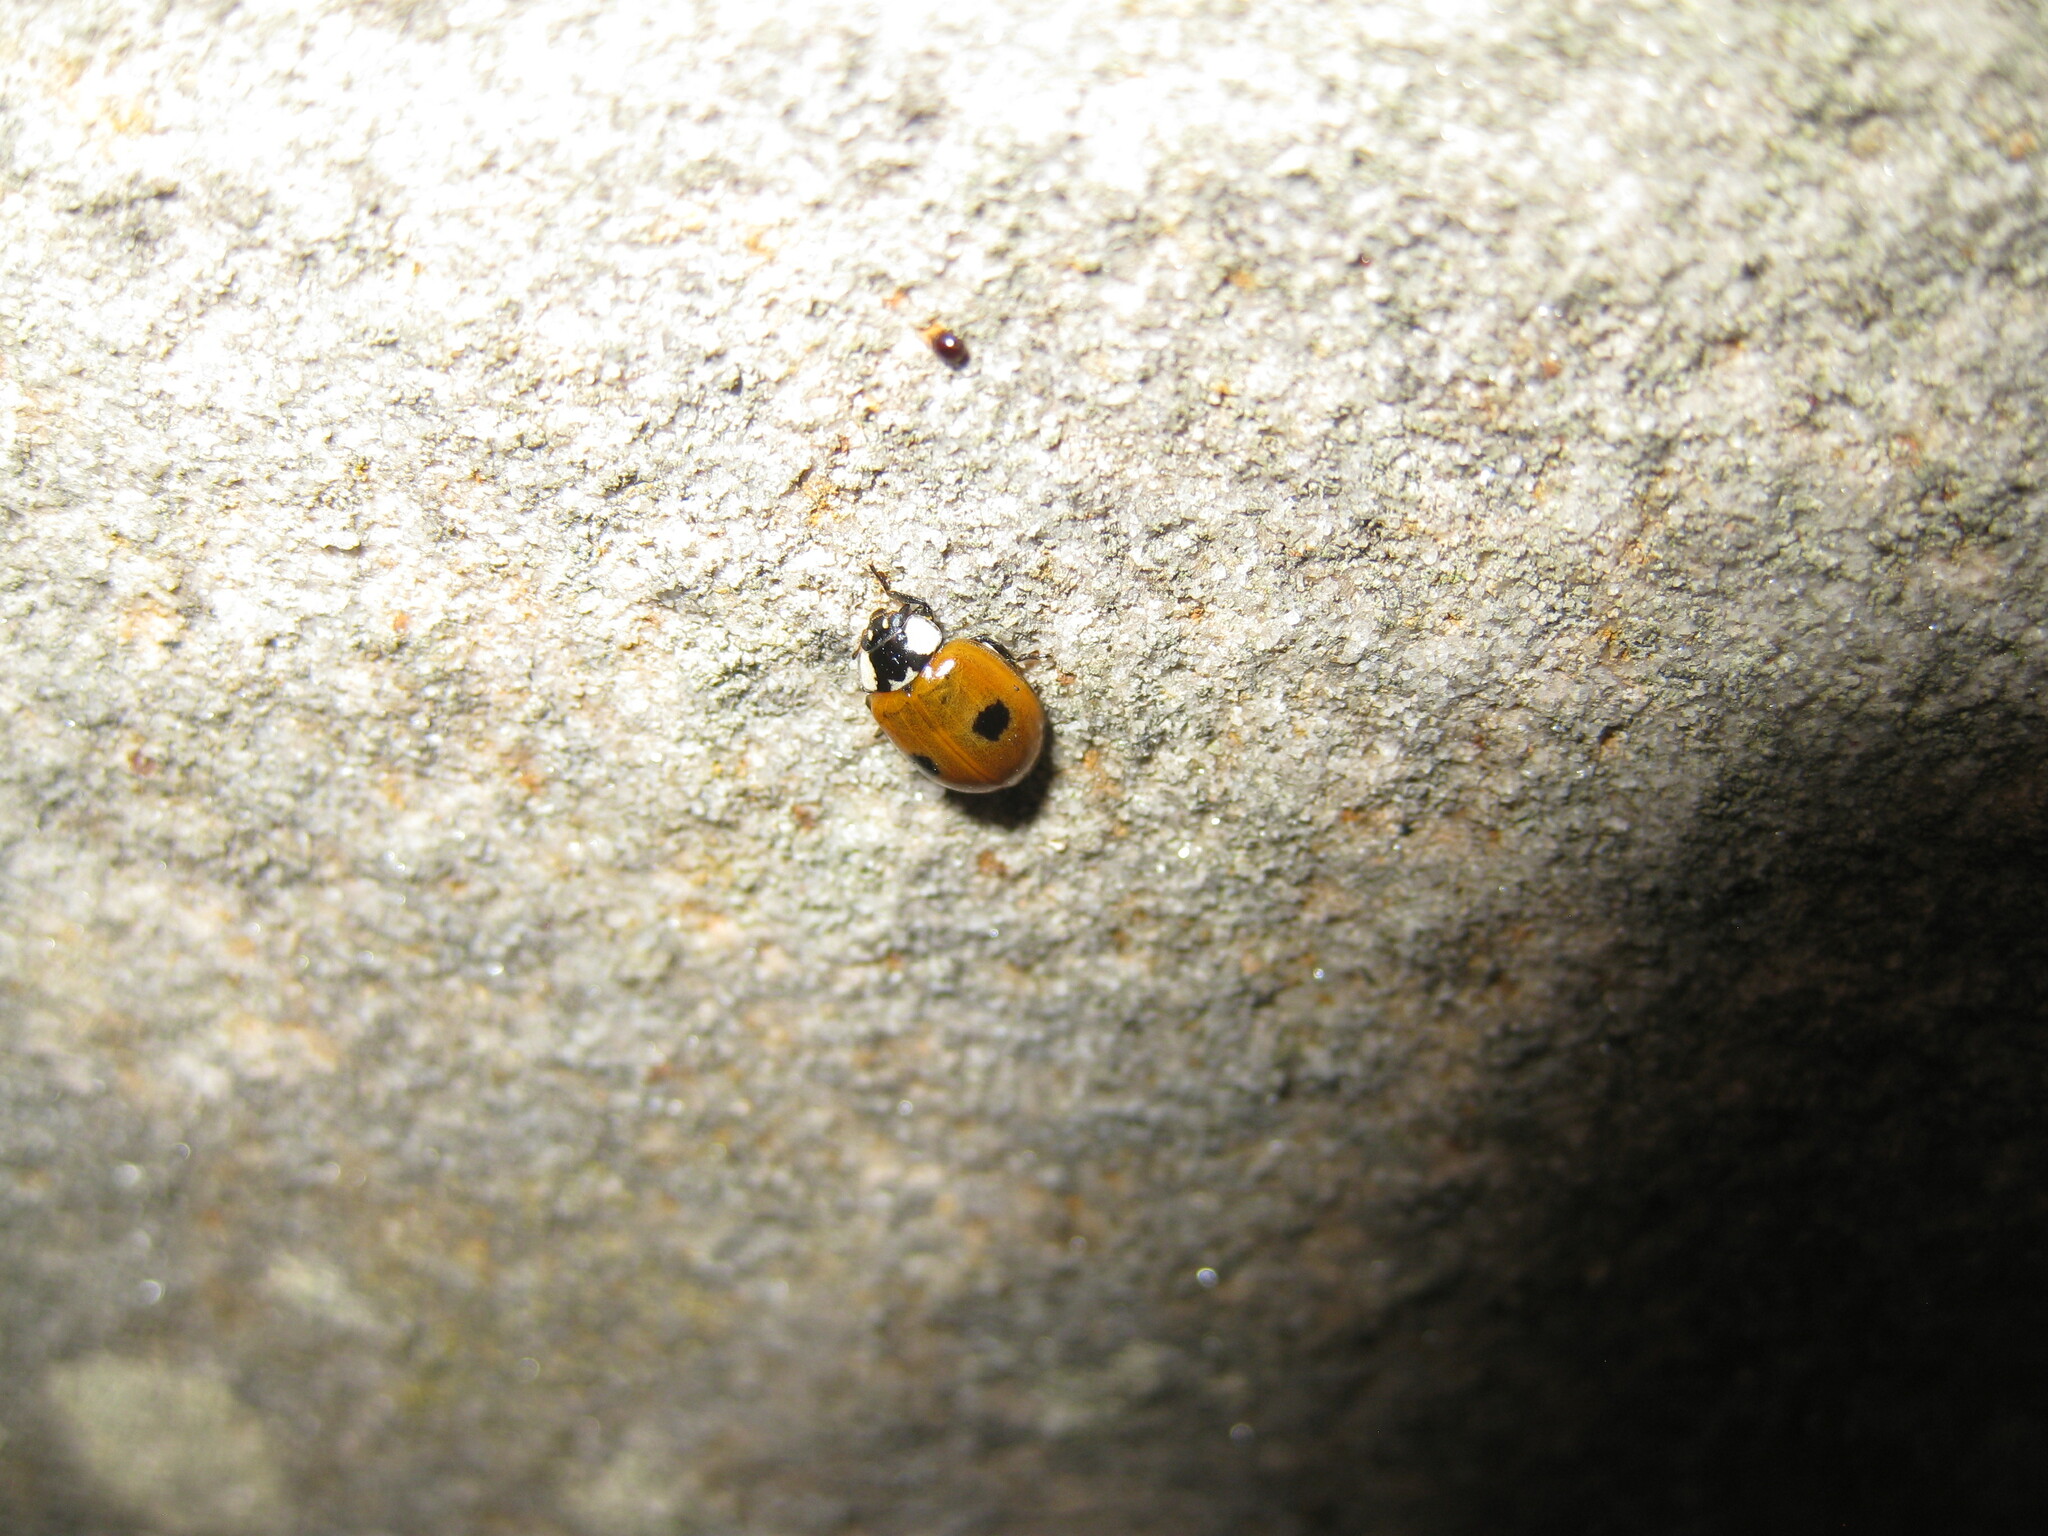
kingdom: Animalia
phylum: Arthropoda
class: Insecta
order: Coleoptera
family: Coccinellidae
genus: Adalia
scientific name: Adalia bipunctata
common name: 2-spot ladybird
